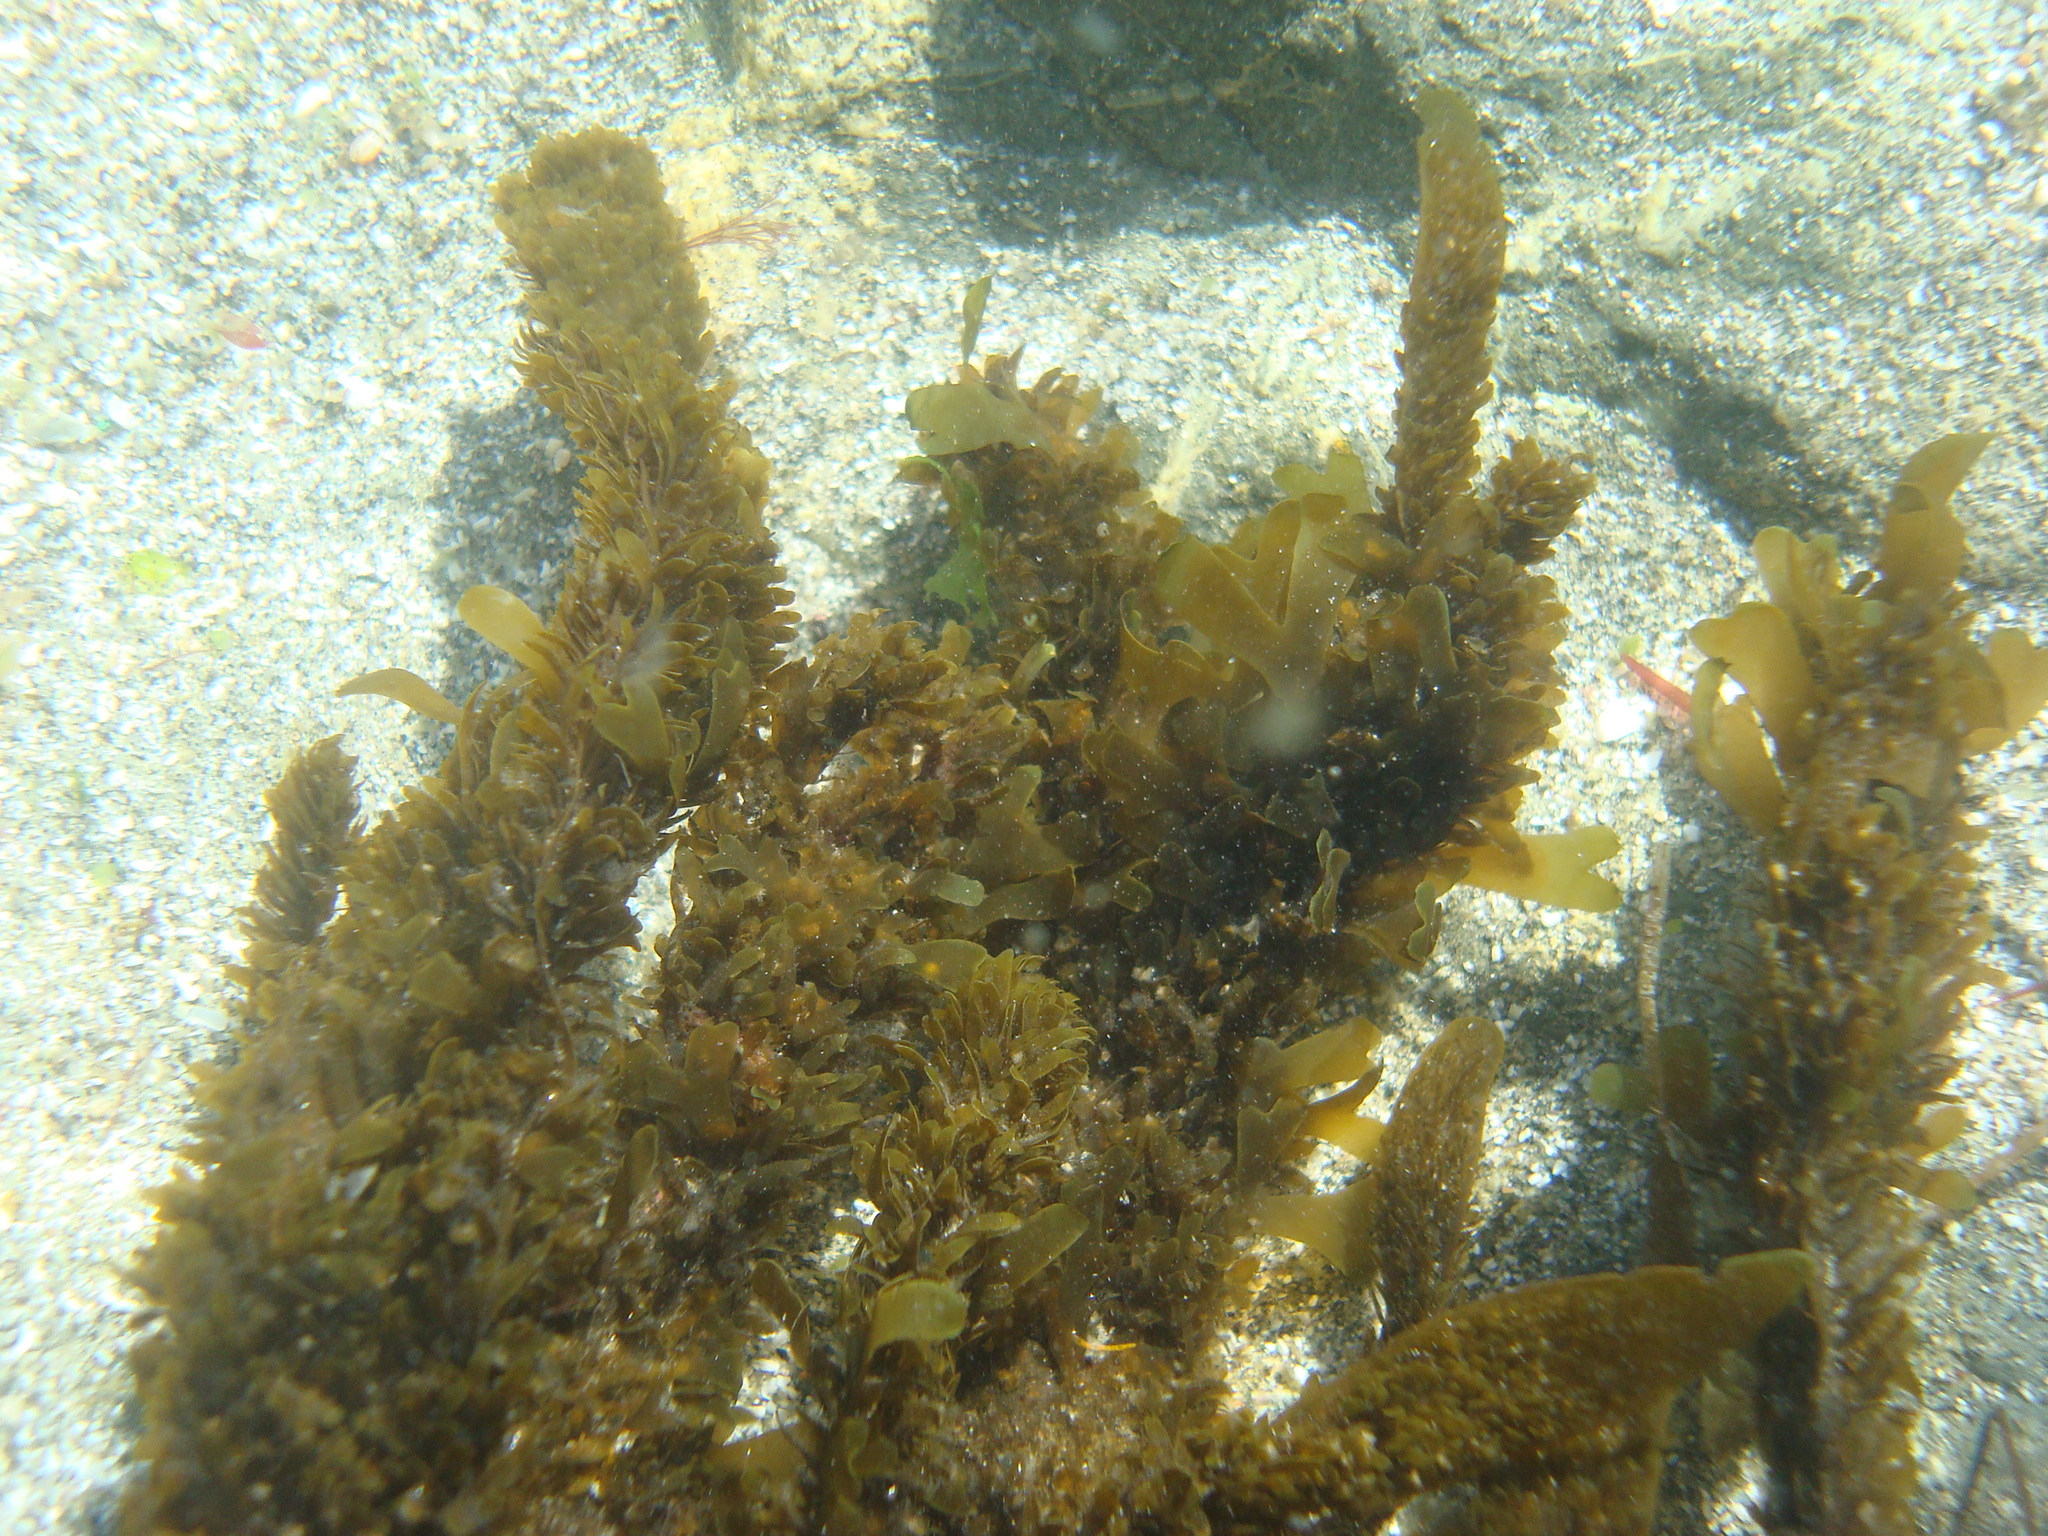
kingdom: Chromista
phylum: Ochrophyta
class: Phaeophyceae
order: Dictyotales
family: Dictyotaceae
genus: Dictyota
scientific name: Dictyota kunthii
